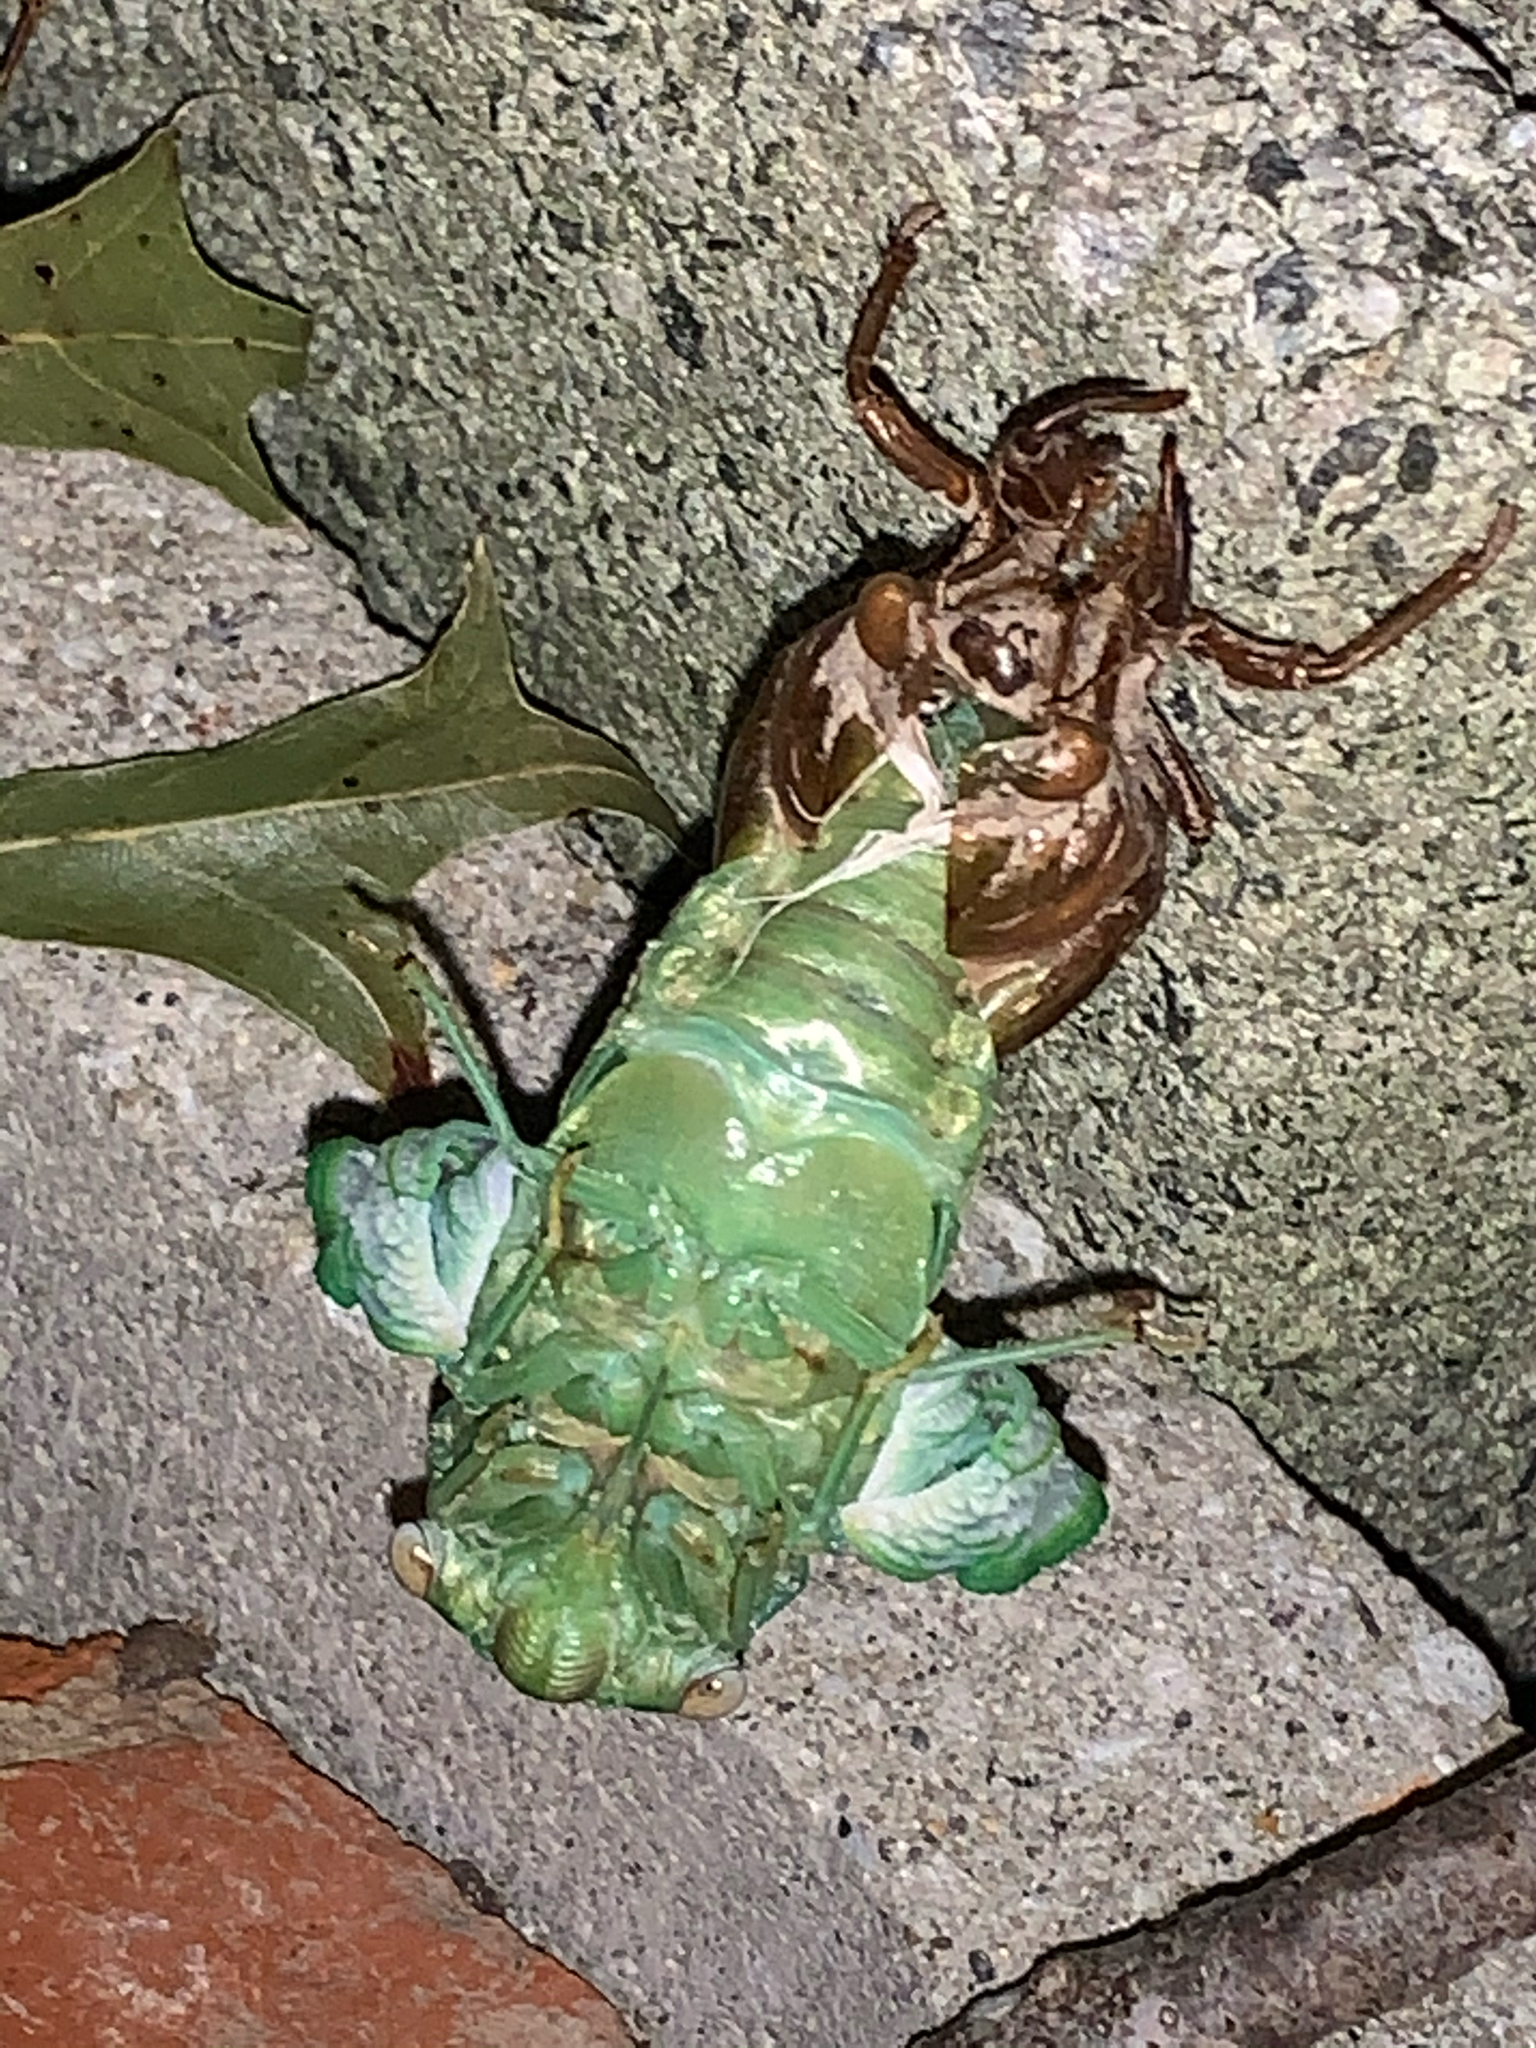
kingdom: Animalia
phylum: Arthropoda
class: Insecta
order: Hemiptera
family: Cicadidae
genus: Diceroprocta
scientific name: Diceroprocta grossa
